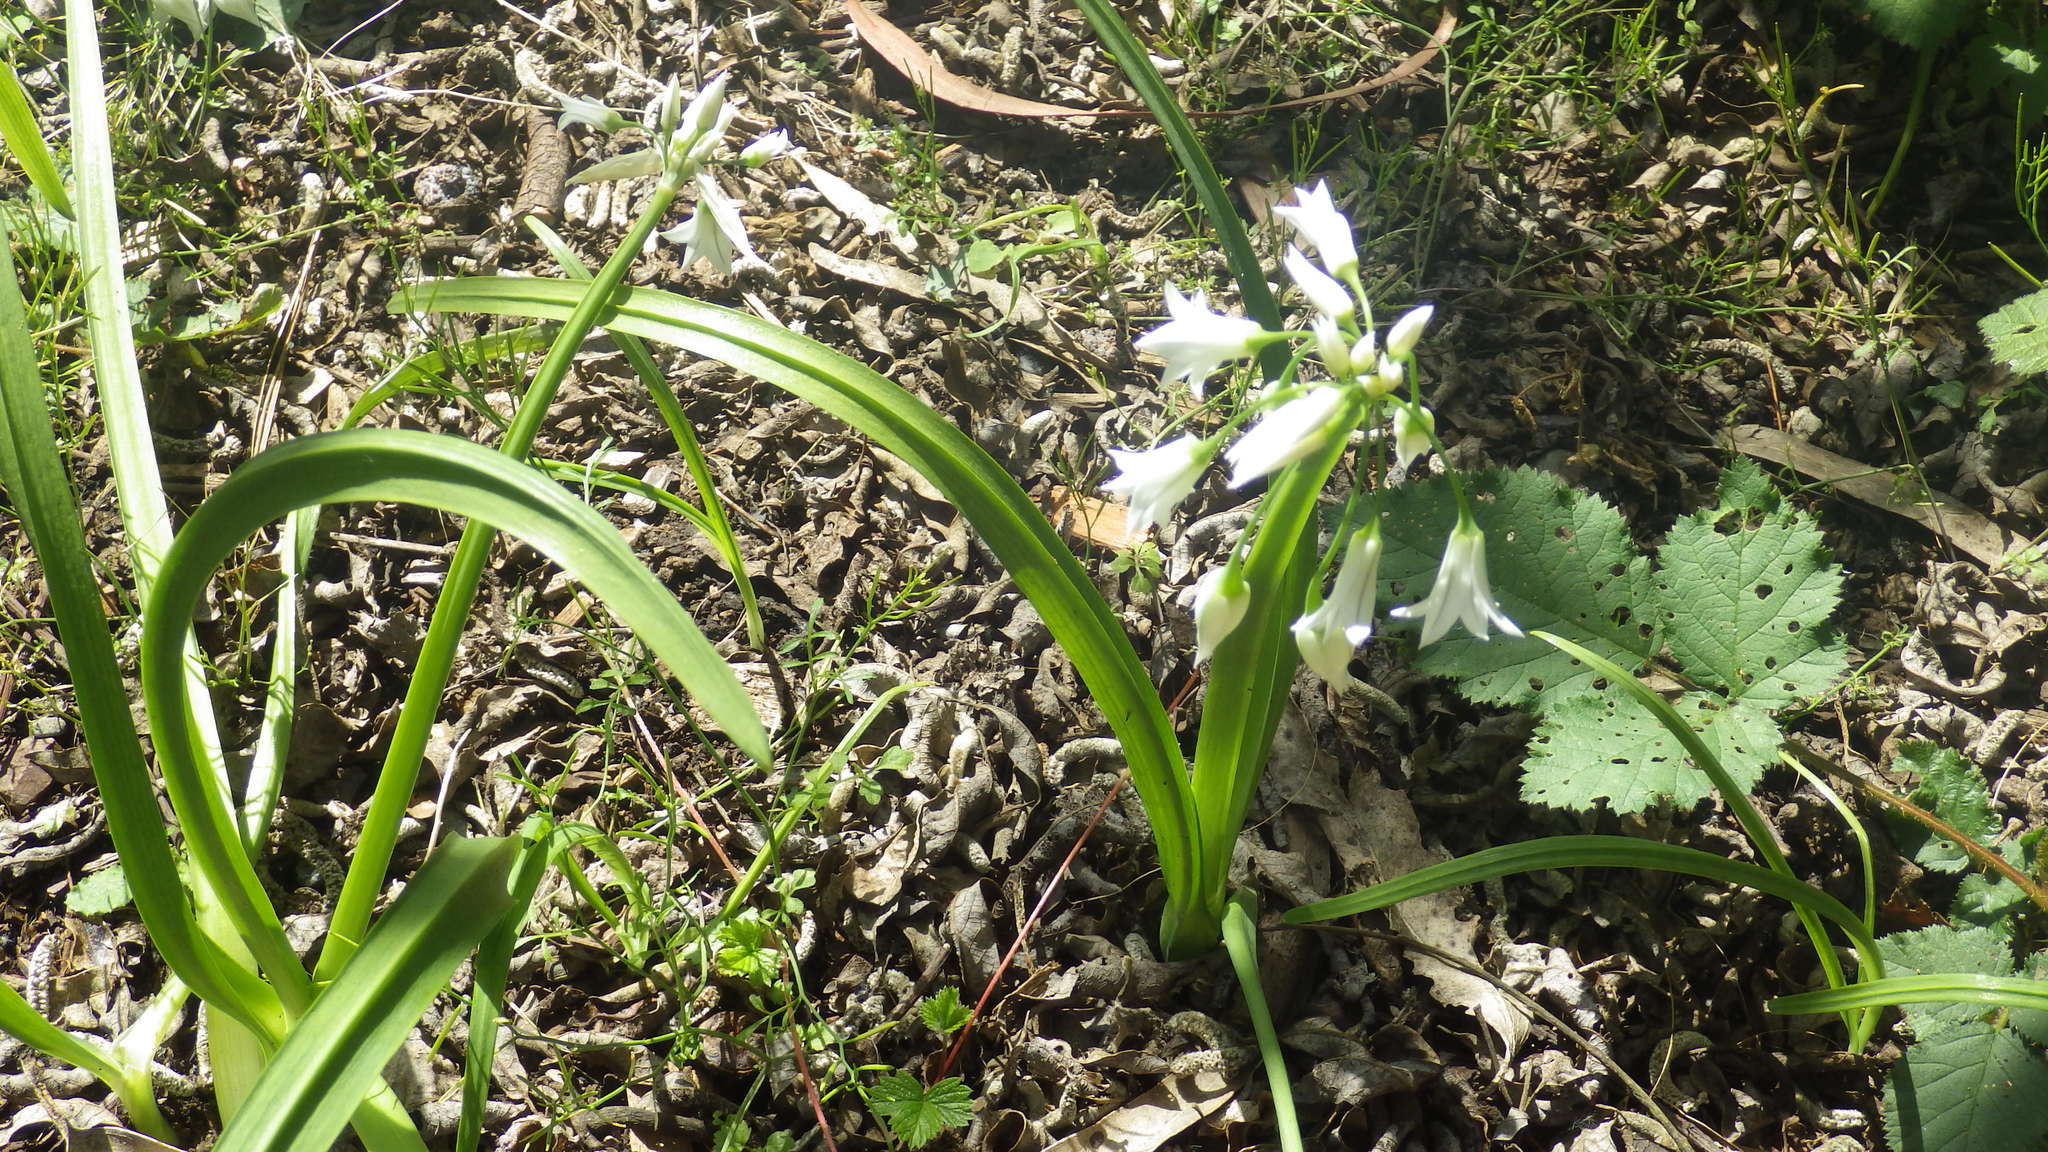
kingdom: Plantae
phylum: Tracheophyta
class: Liliopsida
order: Asparagales
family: Amaryllidaceae
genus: Allium
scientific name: Allium triquetrum
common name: Three-cornered garlic
